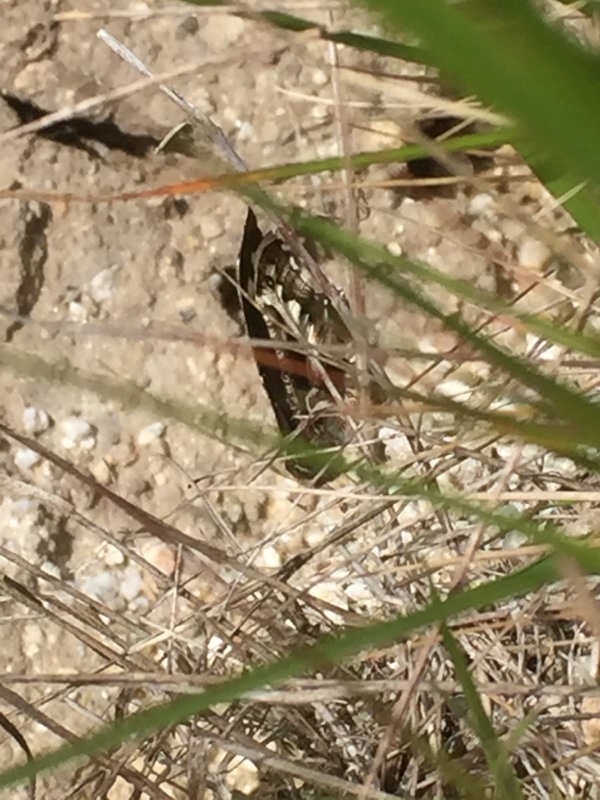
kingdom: Animalia
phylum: Arthropoda
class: Insecta
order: Lepidoptera
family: Lycaenidae
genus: Loweia
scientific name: Loweia tityrus
